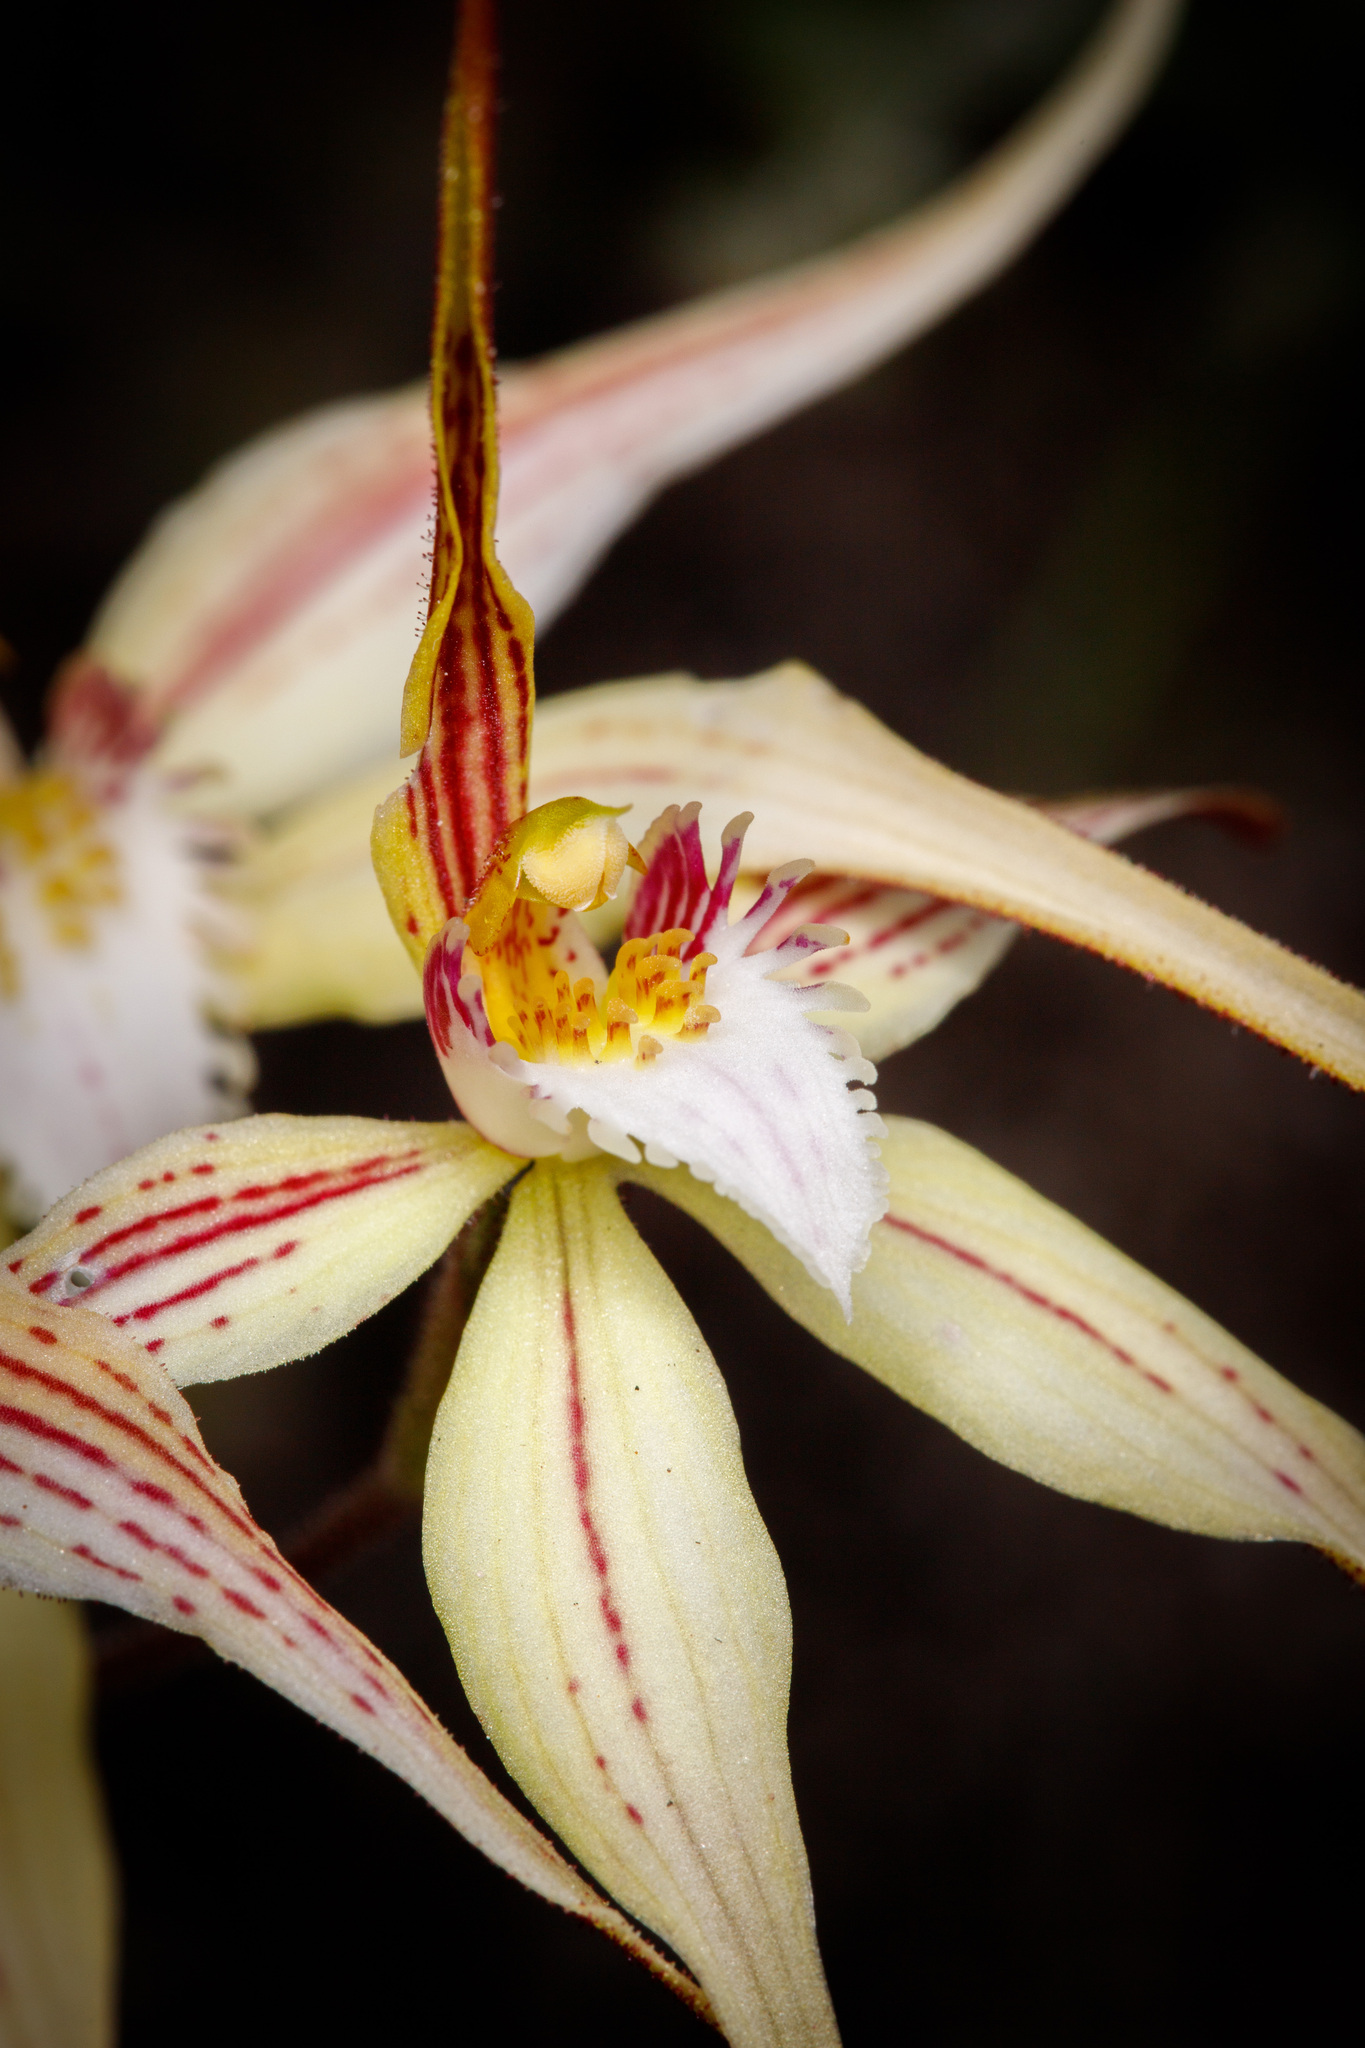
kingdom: Plantae
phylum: Tracheophyta
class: Liliopsida
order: Asparagales
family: Orchidaceae
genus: Caladenia
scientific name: Caladenia triangularis
